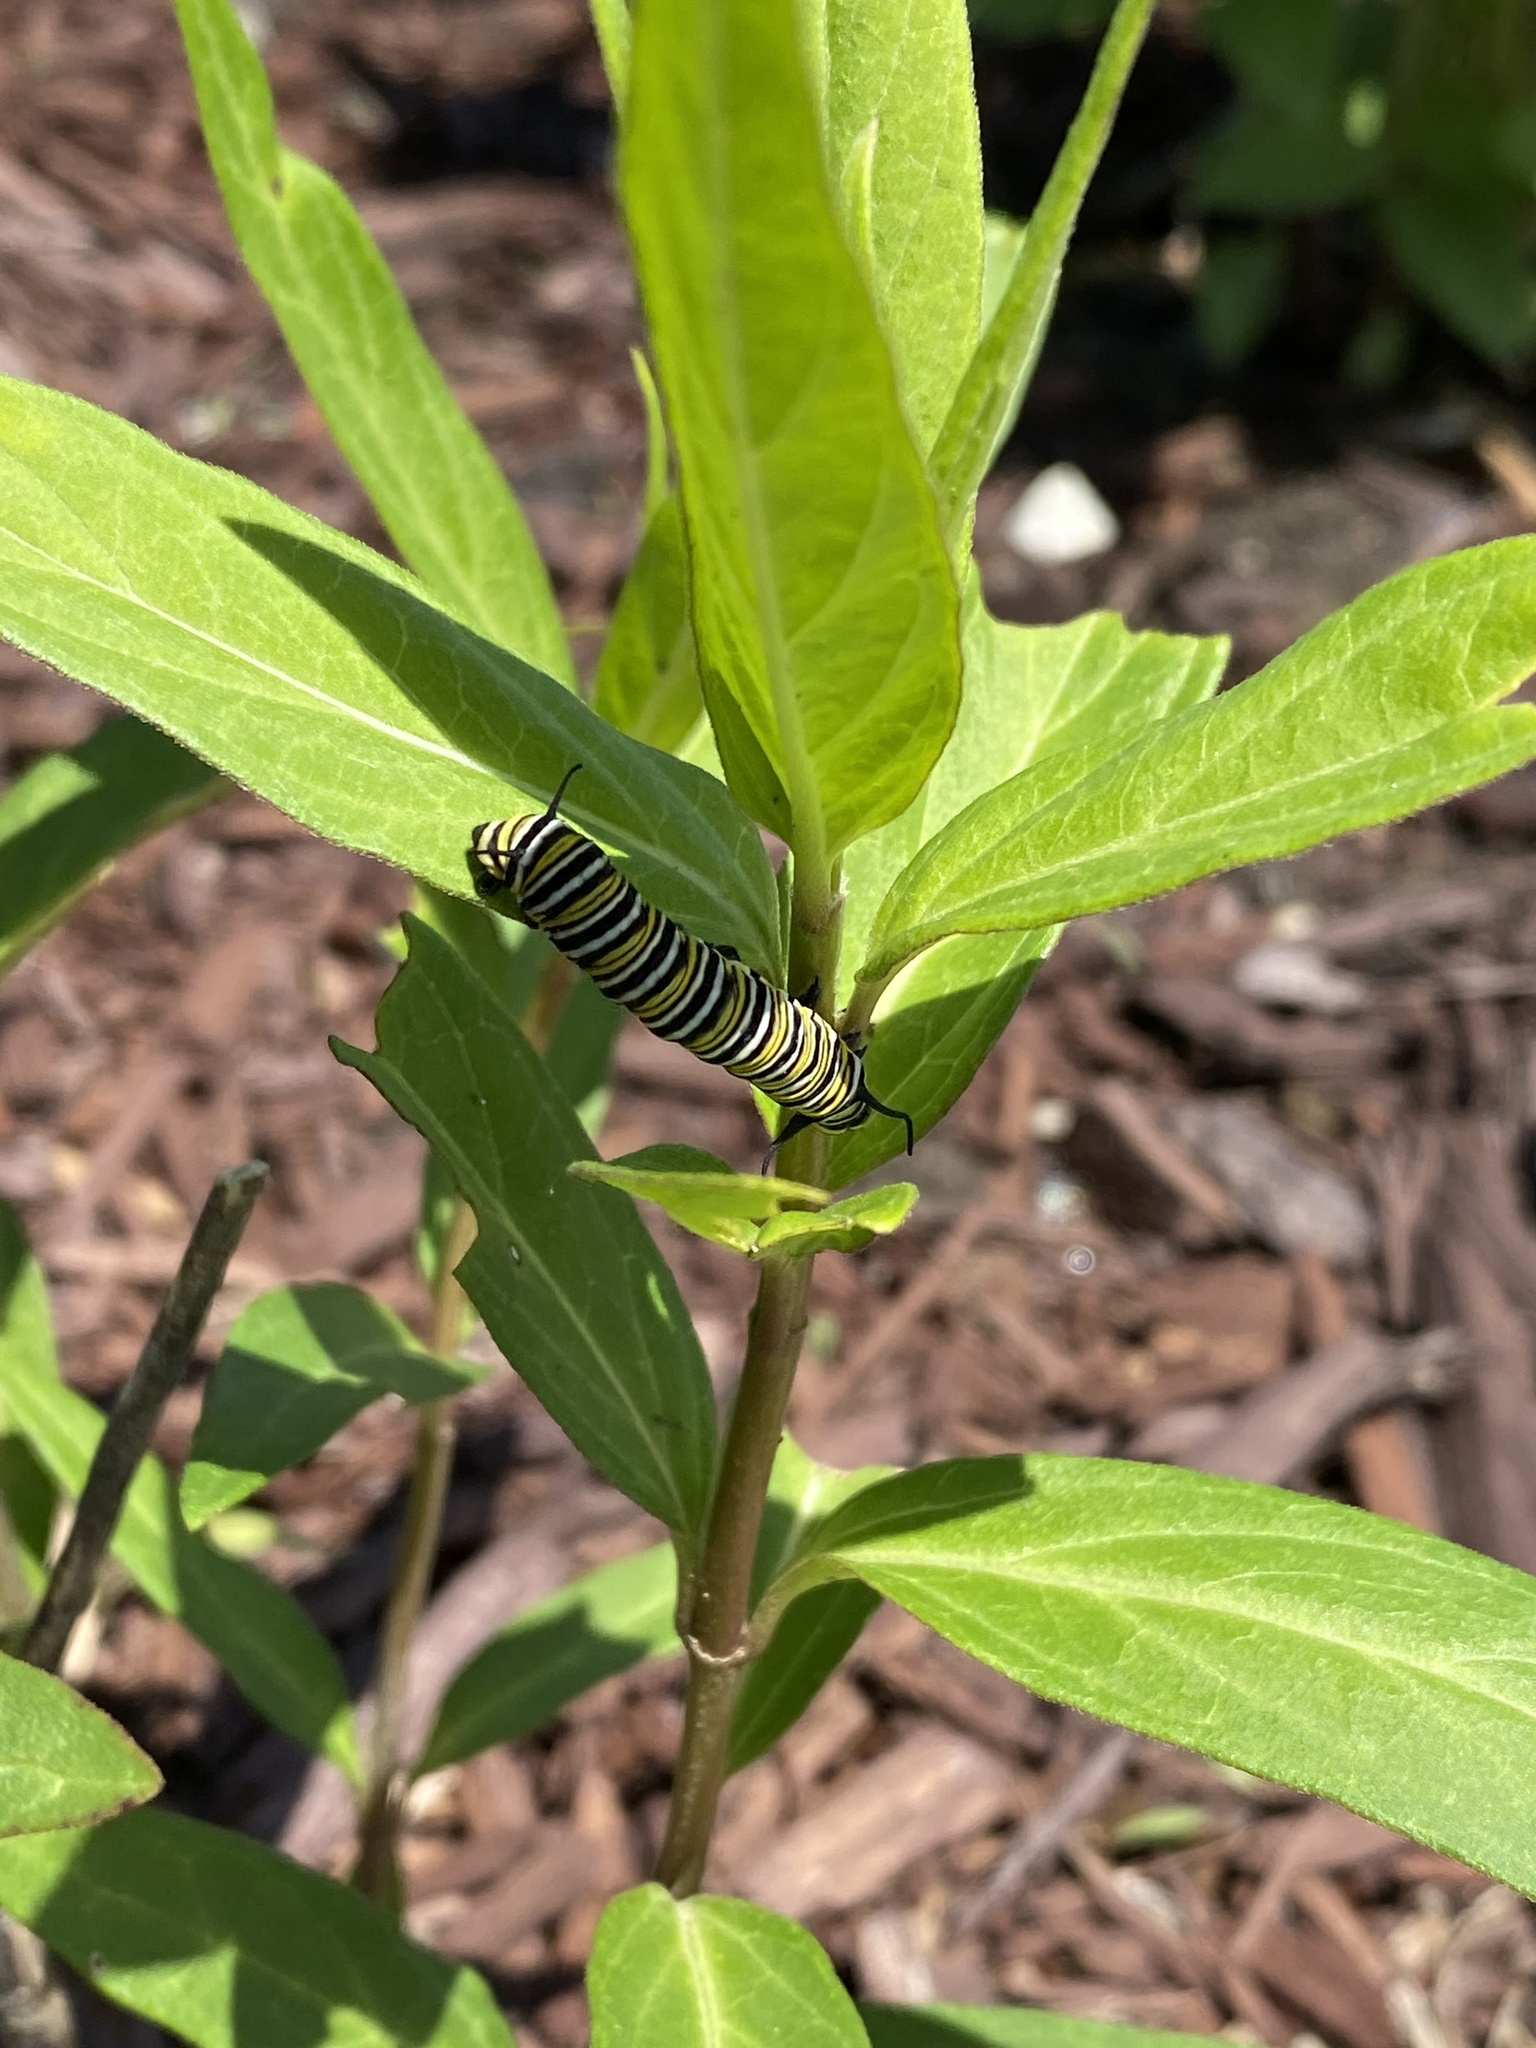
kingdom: Animalia
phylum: Arthropoda
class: Insecta
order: Lepidoptera
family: Nymphalidae
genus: Danaus
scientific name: Danaus plexippus
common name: Monarch
